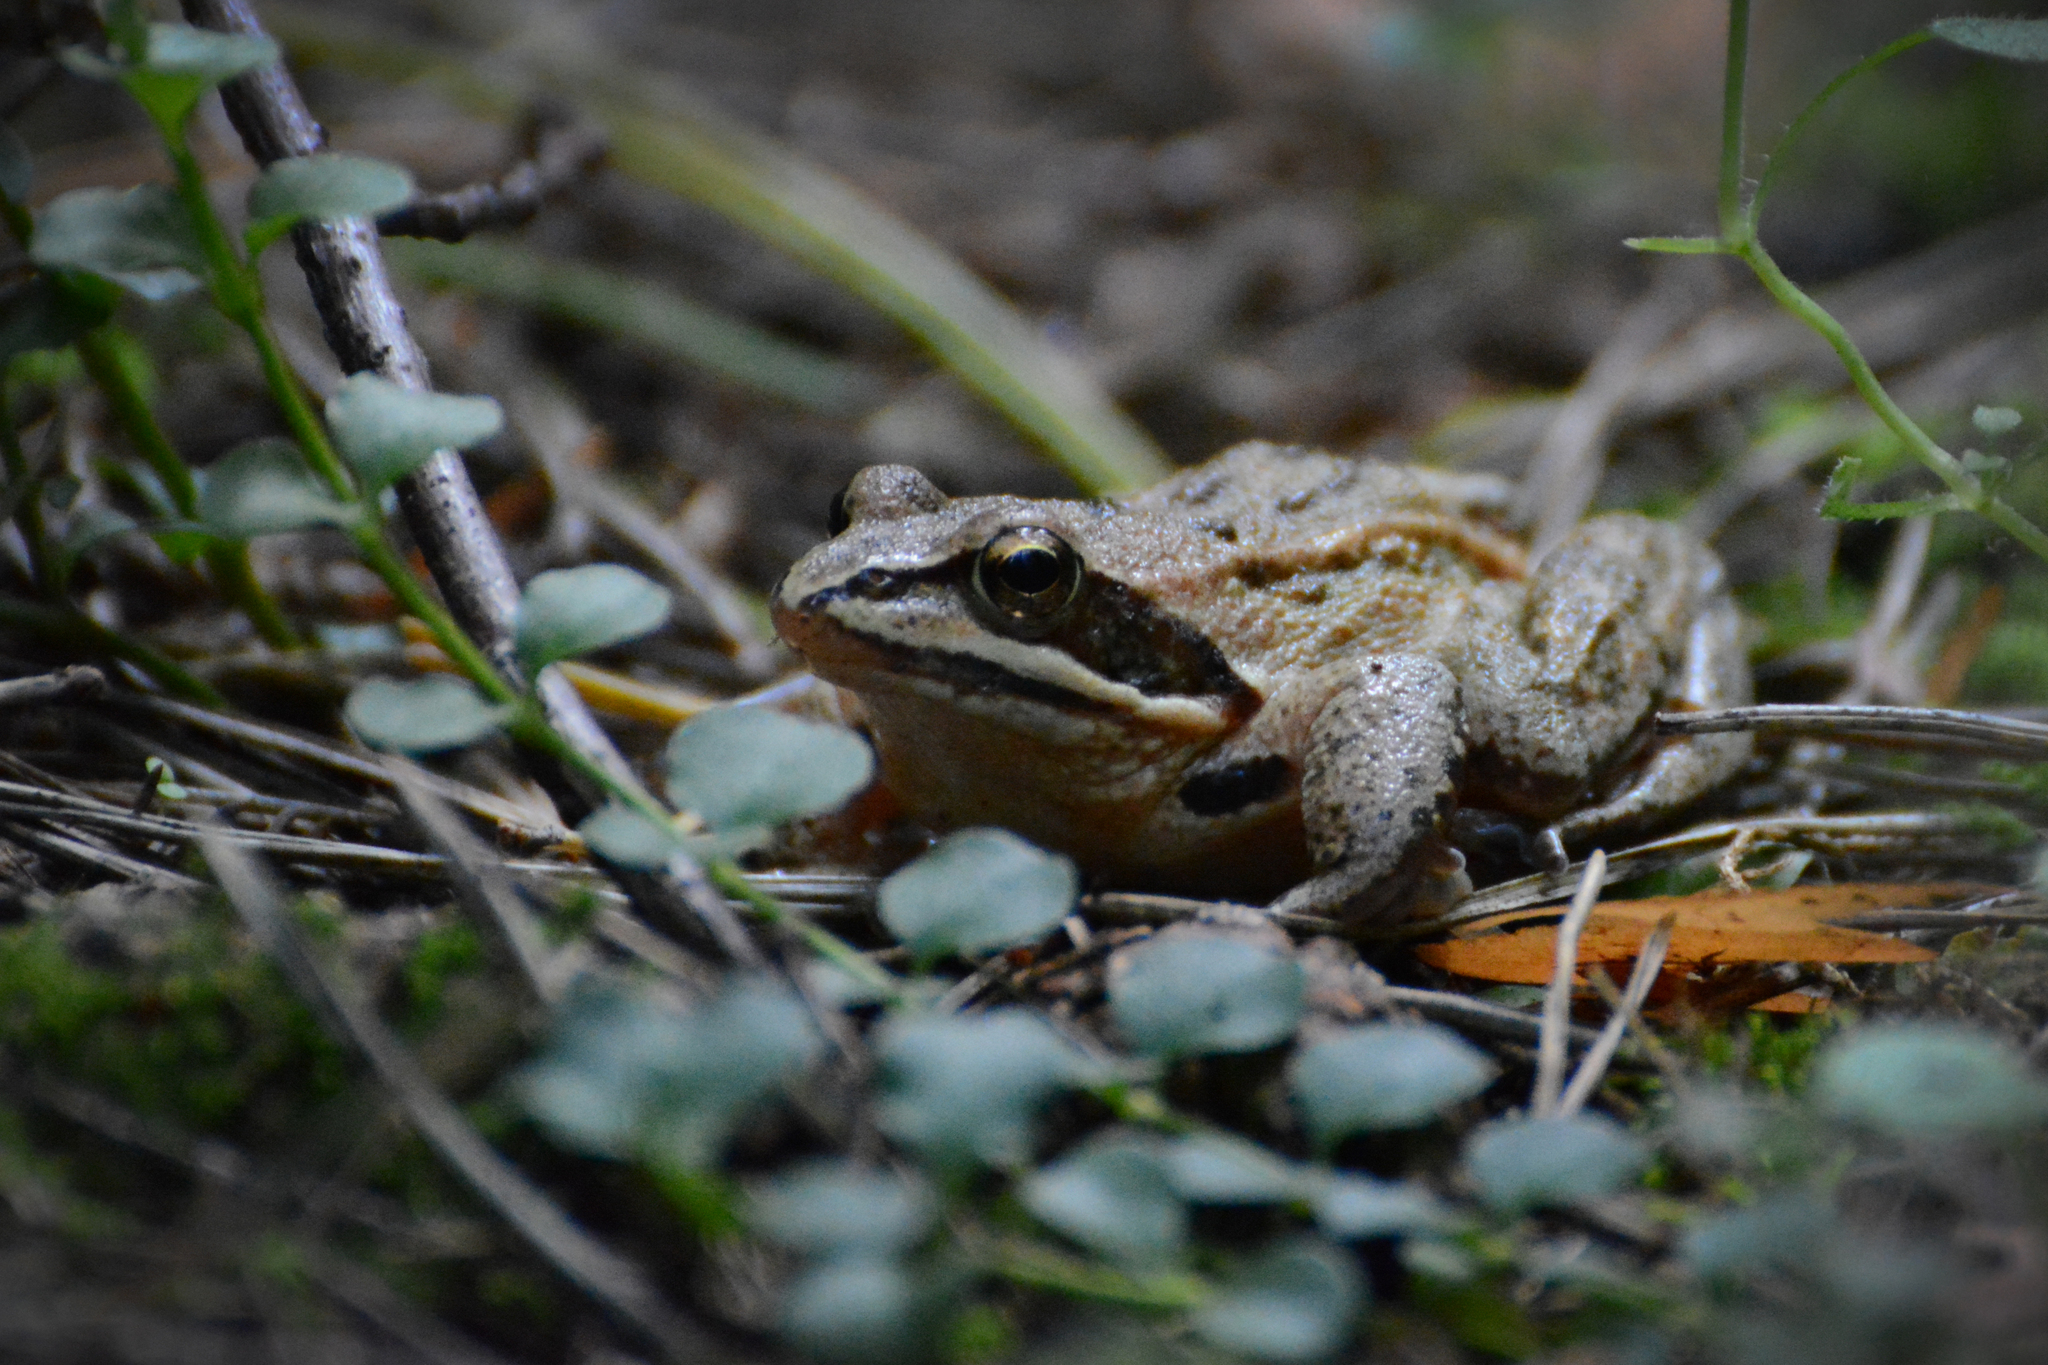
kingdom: Animalia
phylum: Chordata
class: Amphibia
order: Anura
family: Ranidae
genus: Rana
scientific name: Rana arvalis
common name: Moor frog
